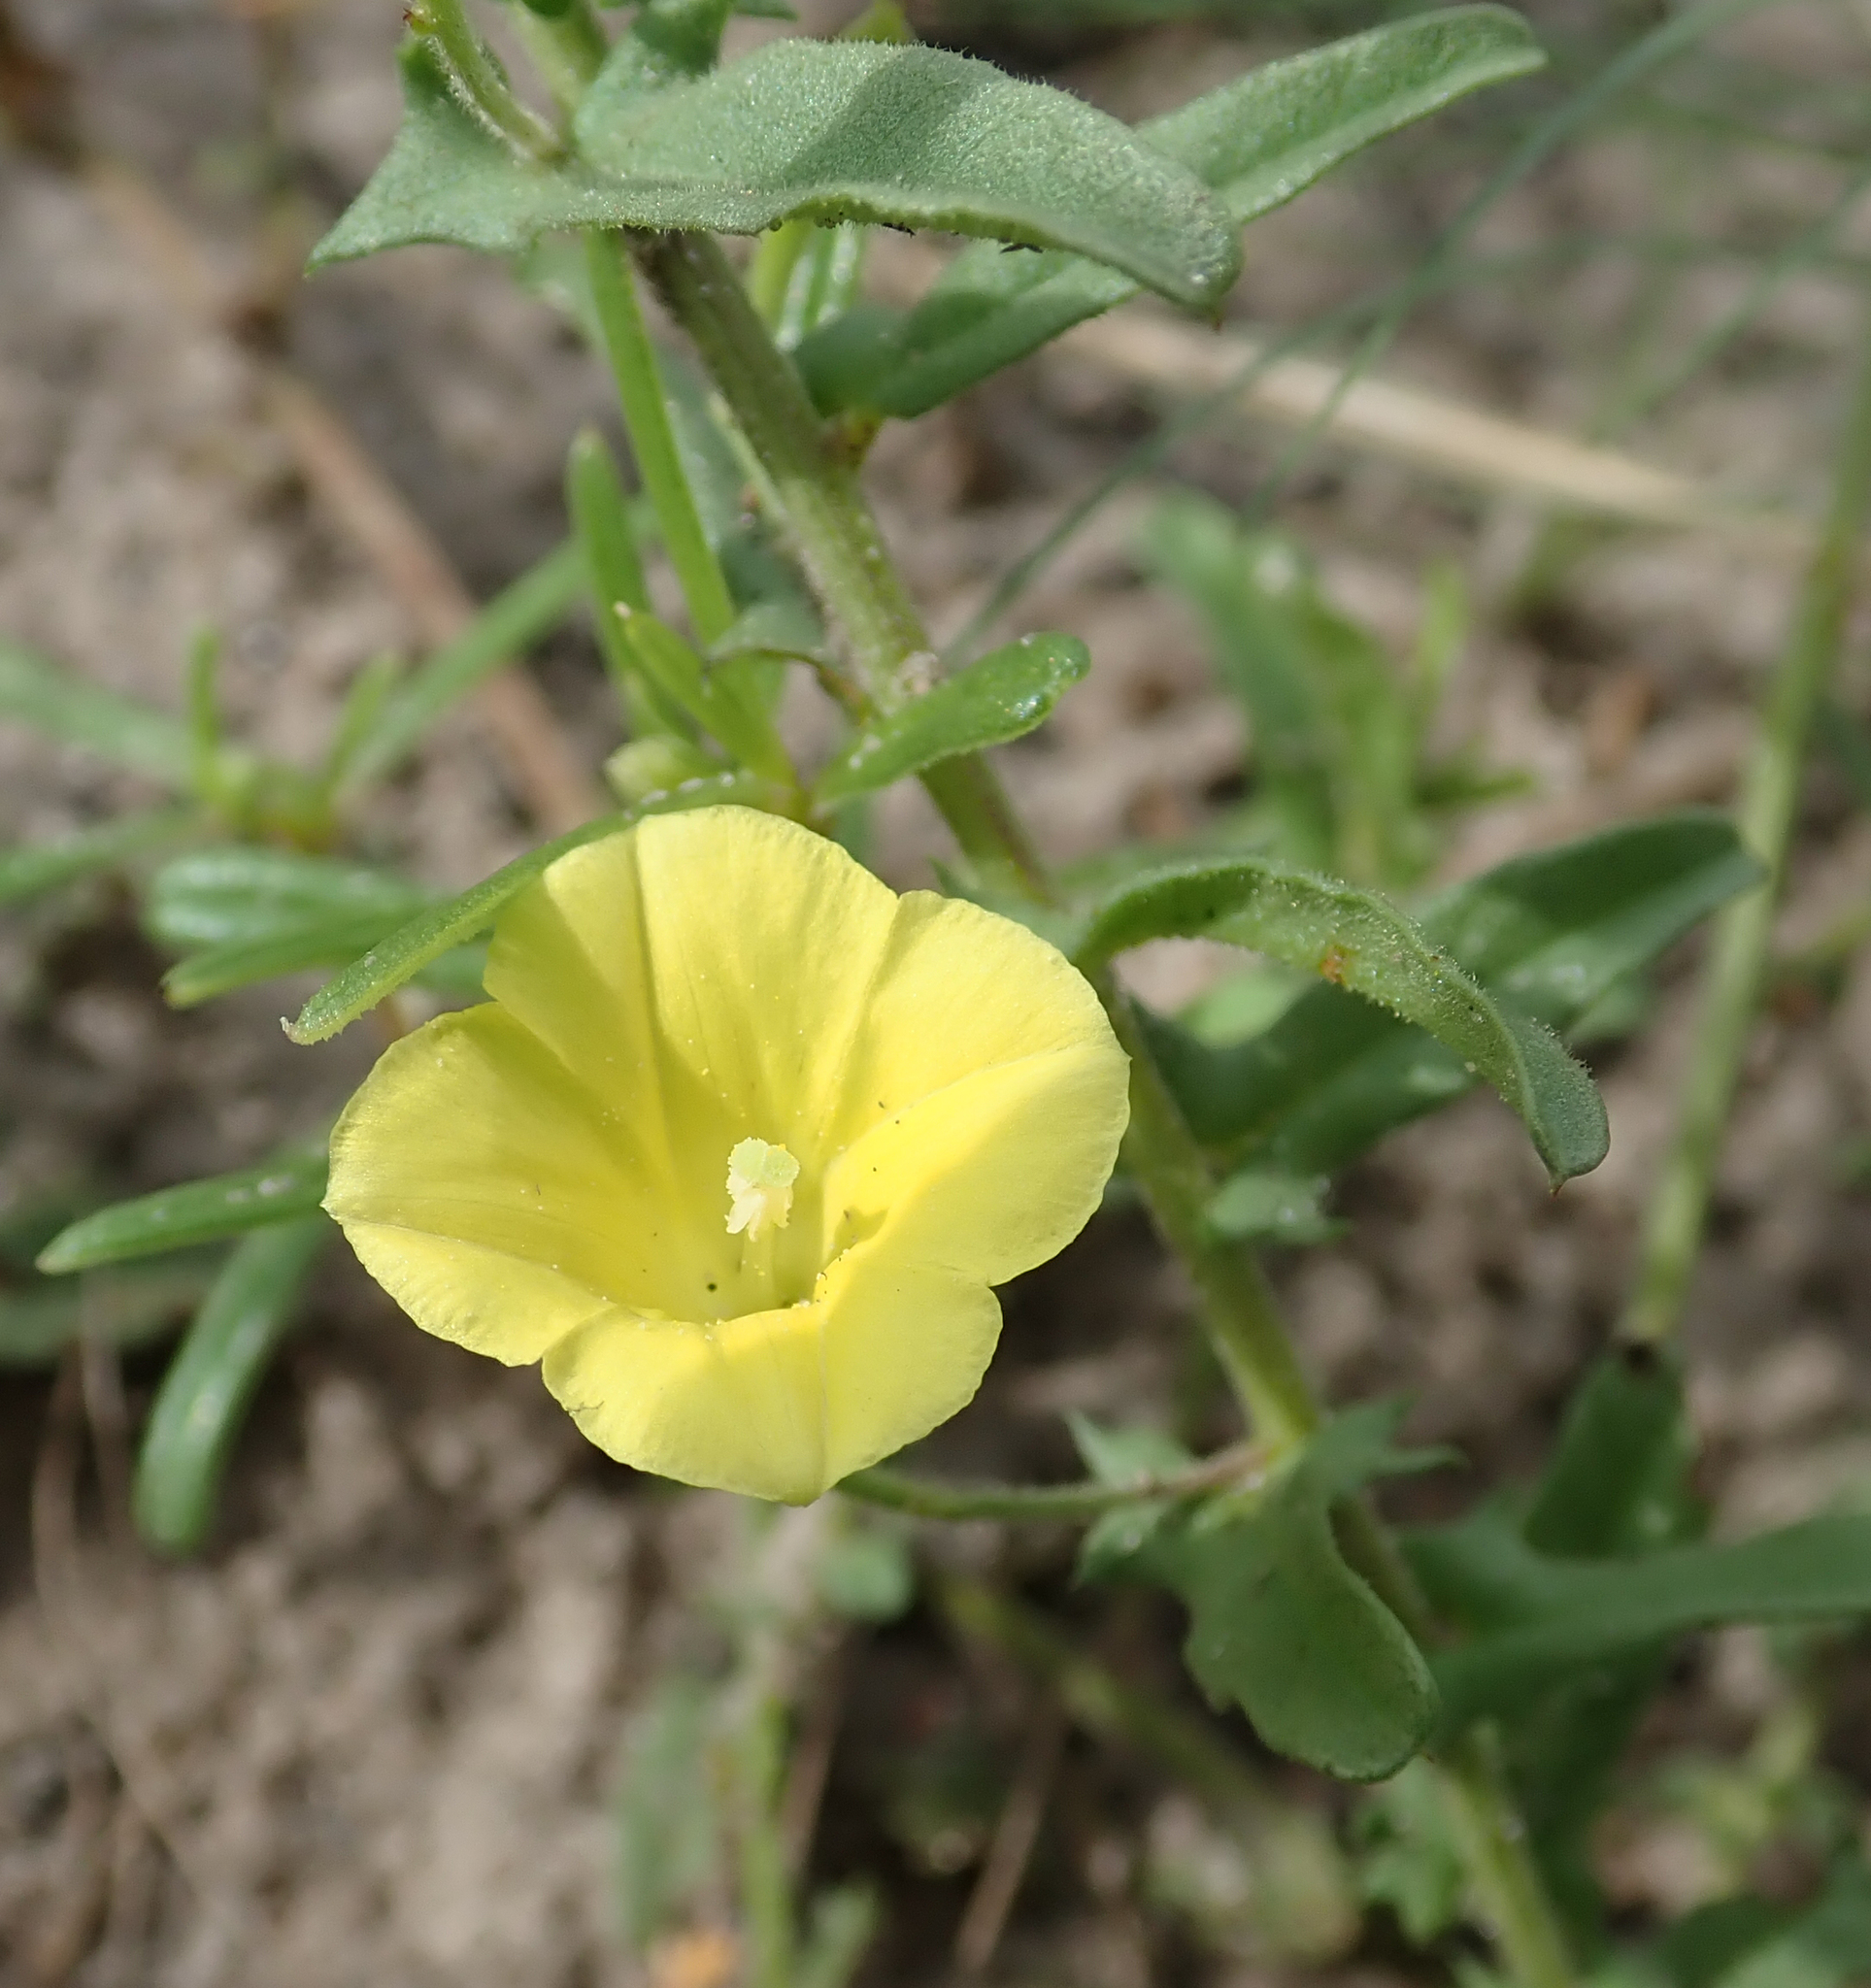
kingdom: Plantae
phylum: Tracheophyta
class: Magnoliopsida
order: Solanales
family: Convolvulaceae
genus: Xenostegia
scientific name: Xenostegia tridentata
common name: African morningvine
